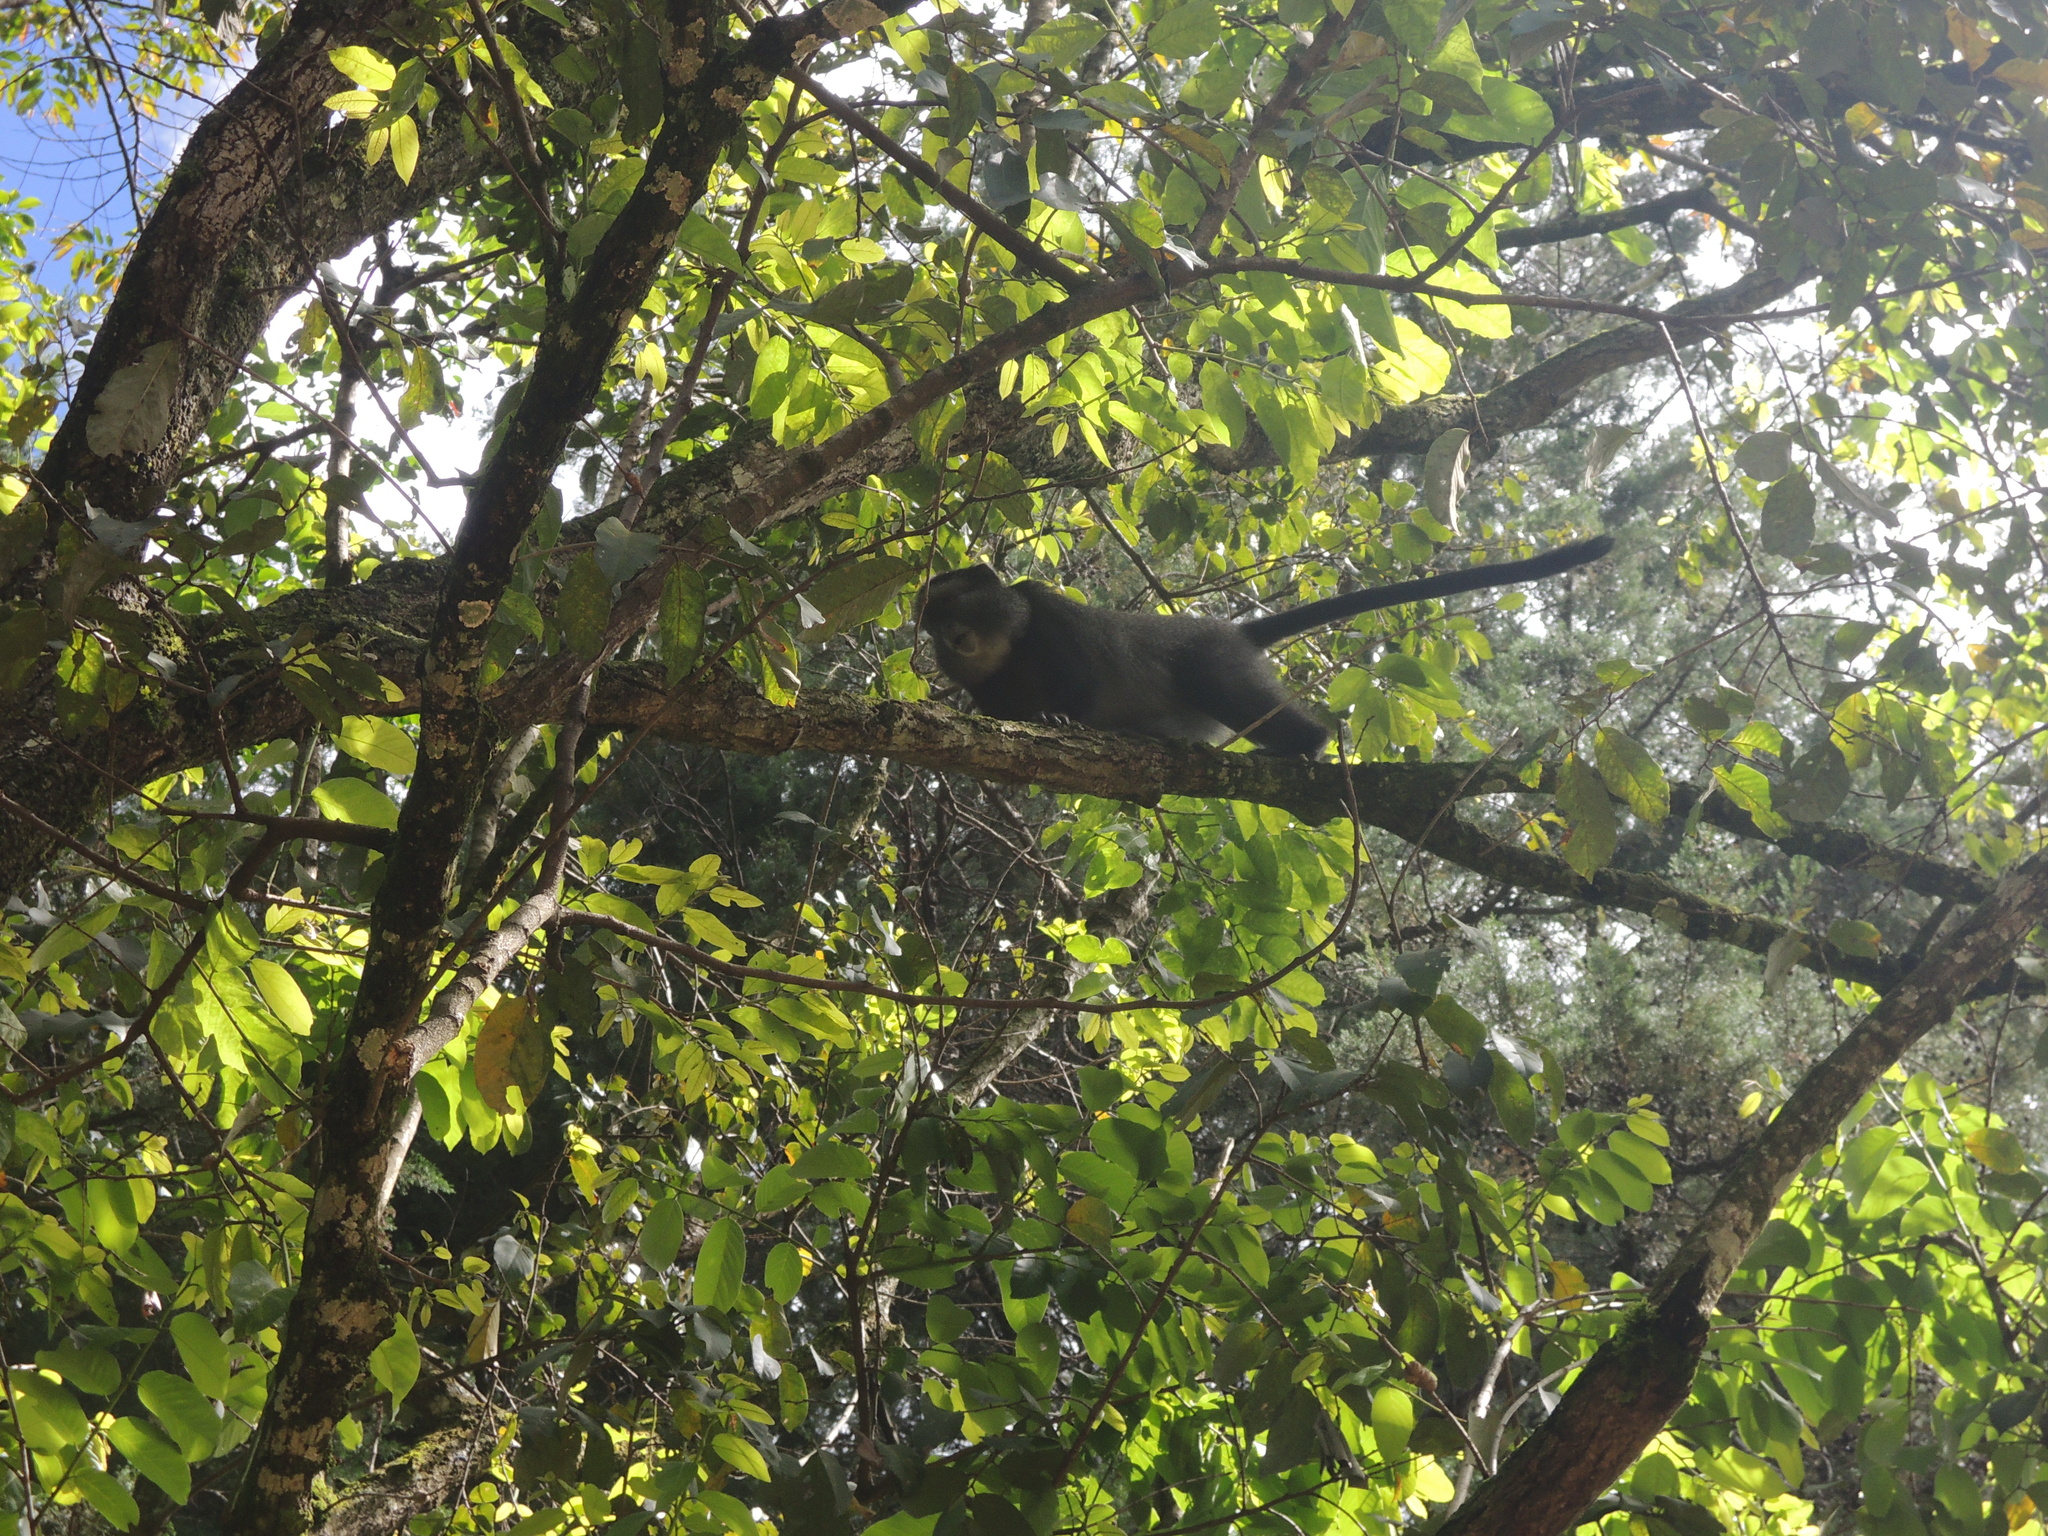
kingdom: Animalia
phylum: Chordata
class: Mammalia
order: Primates
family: Cercopithecidae
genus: Cercopithecus
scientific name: Cercopithecus mitis
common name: Blue monkey
